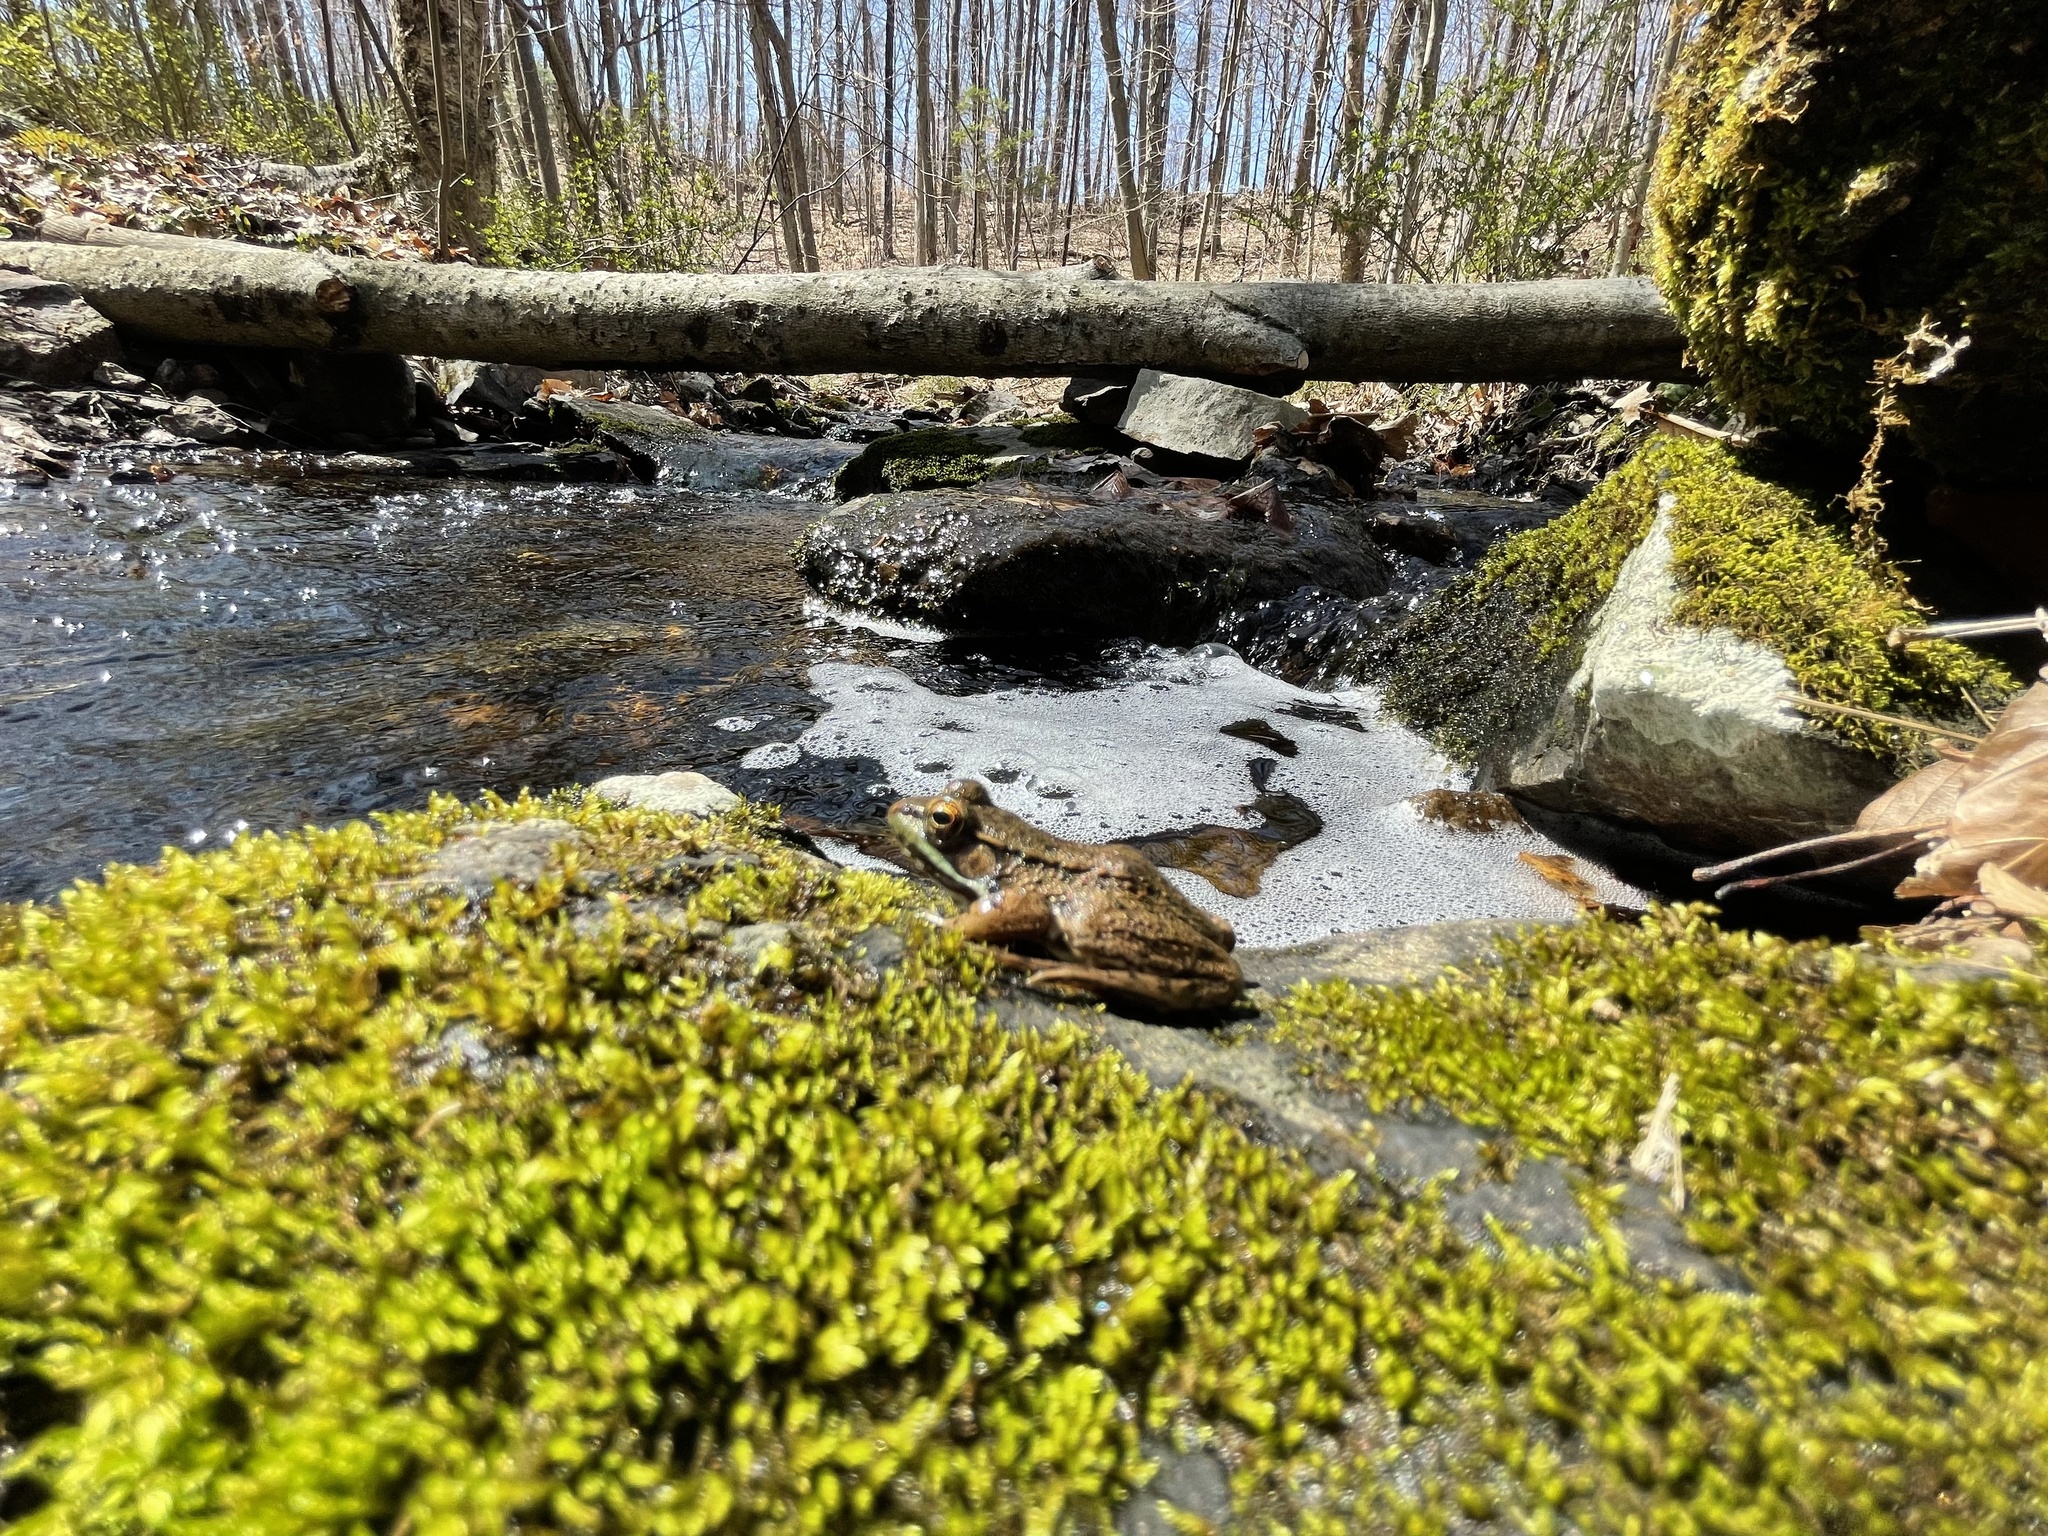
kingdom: Animalia
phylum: Chordata
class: Amphibia
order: Anura
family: Ranidae
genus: Lithobates
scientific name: Lithobates clamitans
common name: Green frog
